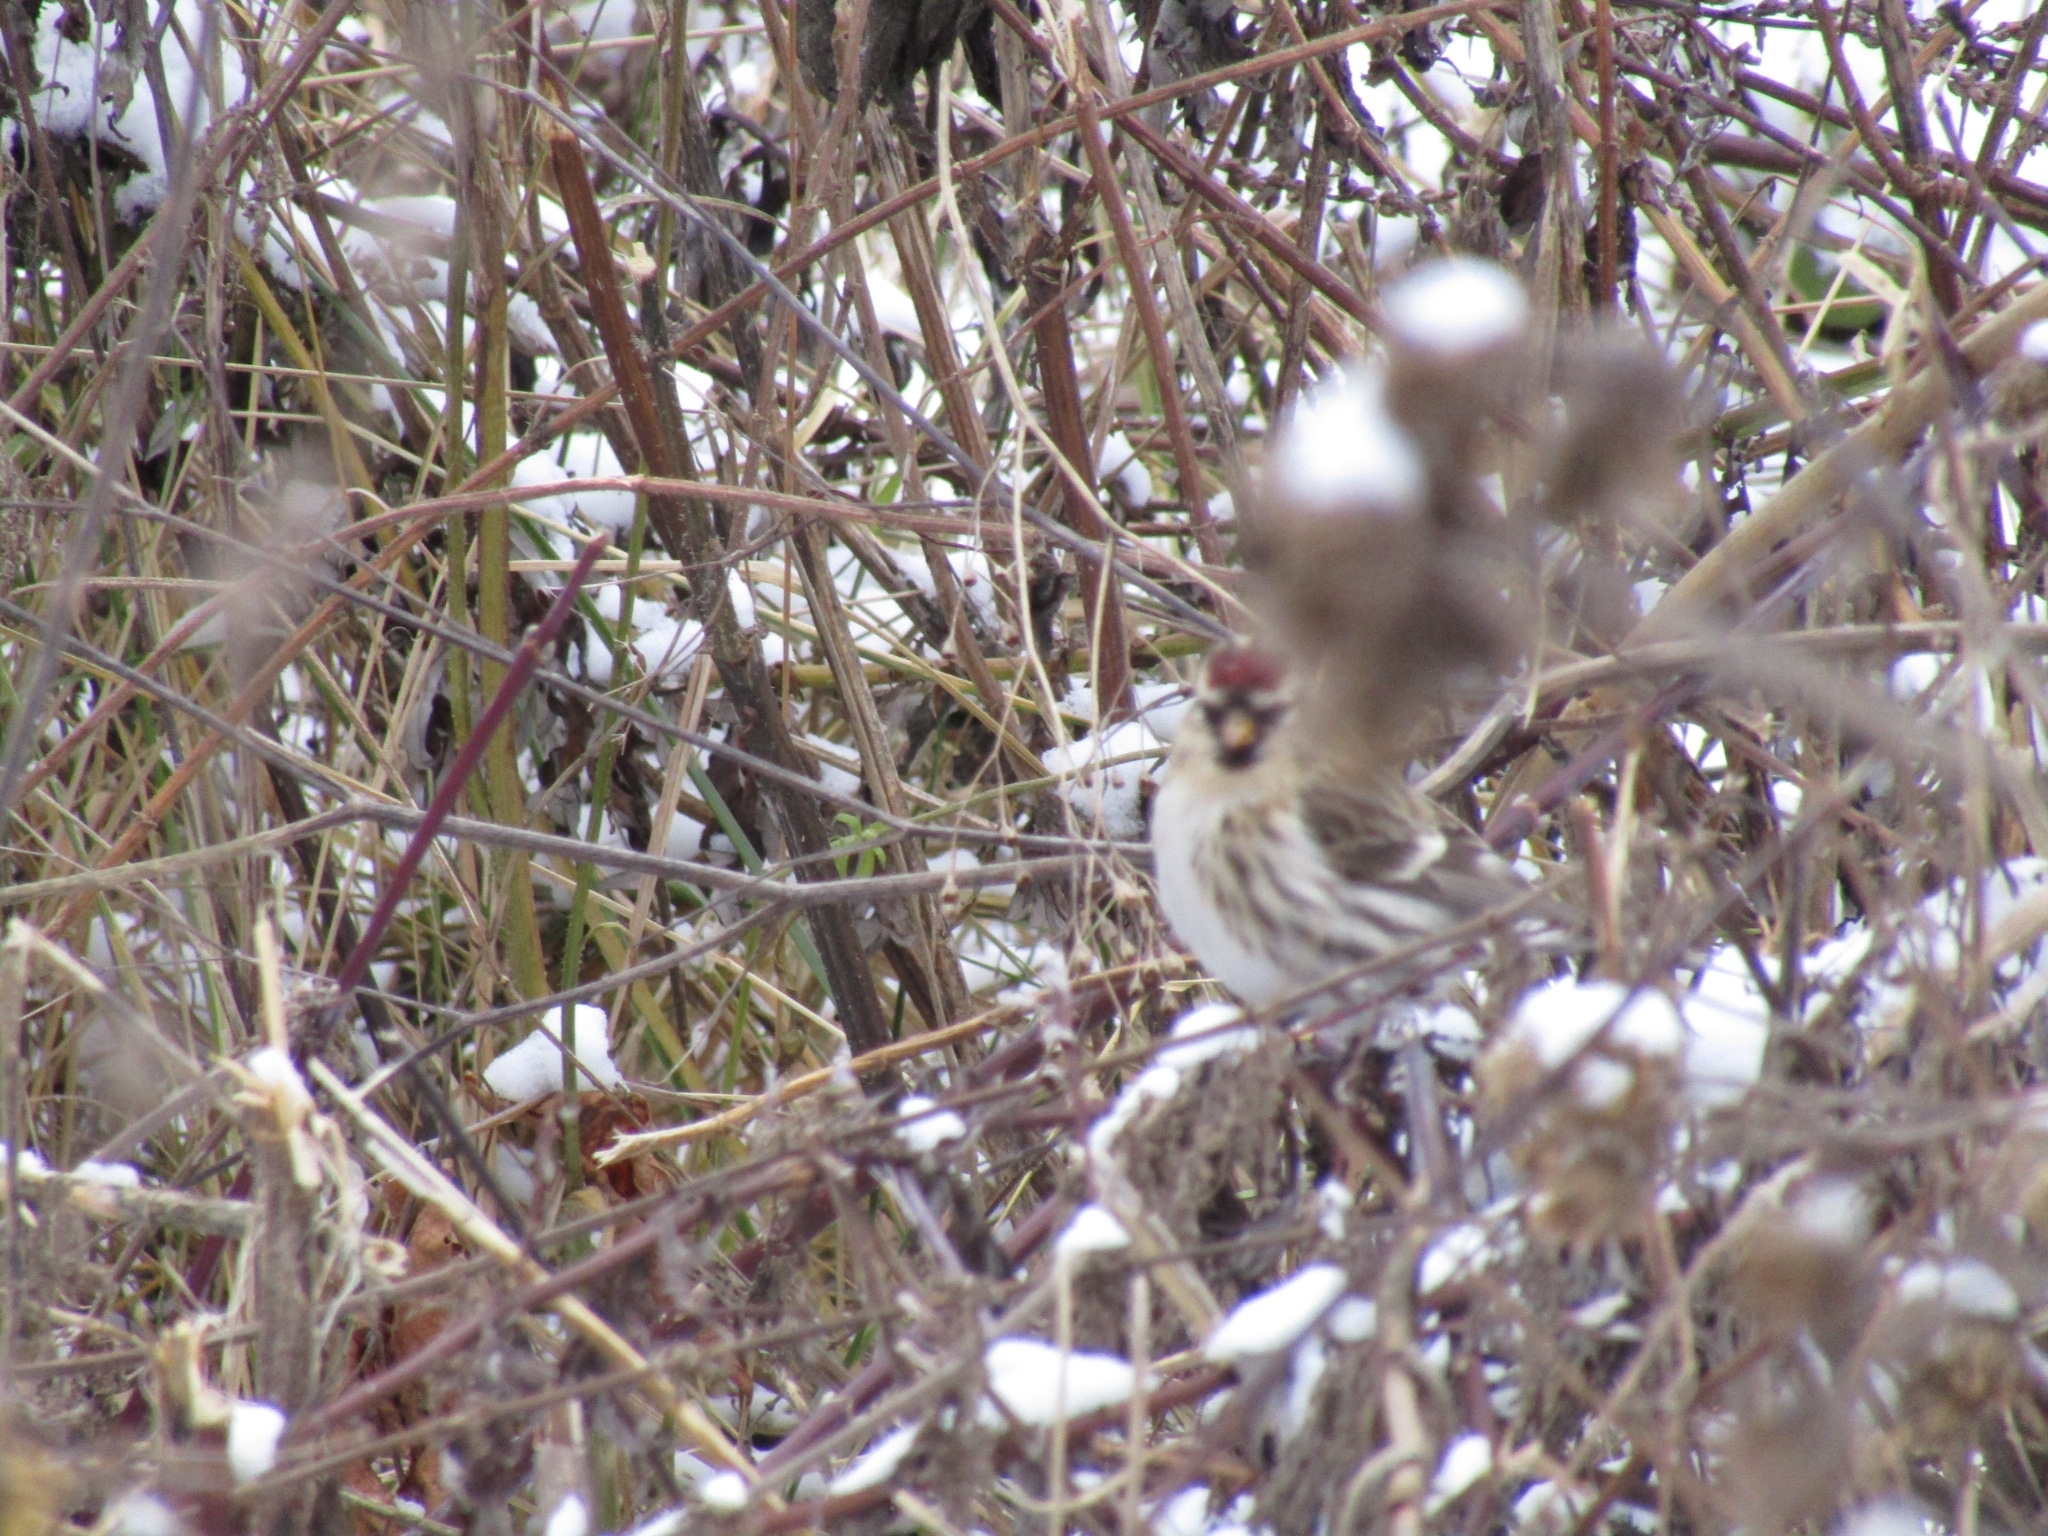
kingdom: Animalia
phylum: Chordata
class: Aves
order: Passeriformes
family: Fringillidae
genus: Acanthis
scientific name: Acanthis flammea
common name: Common redpoll
